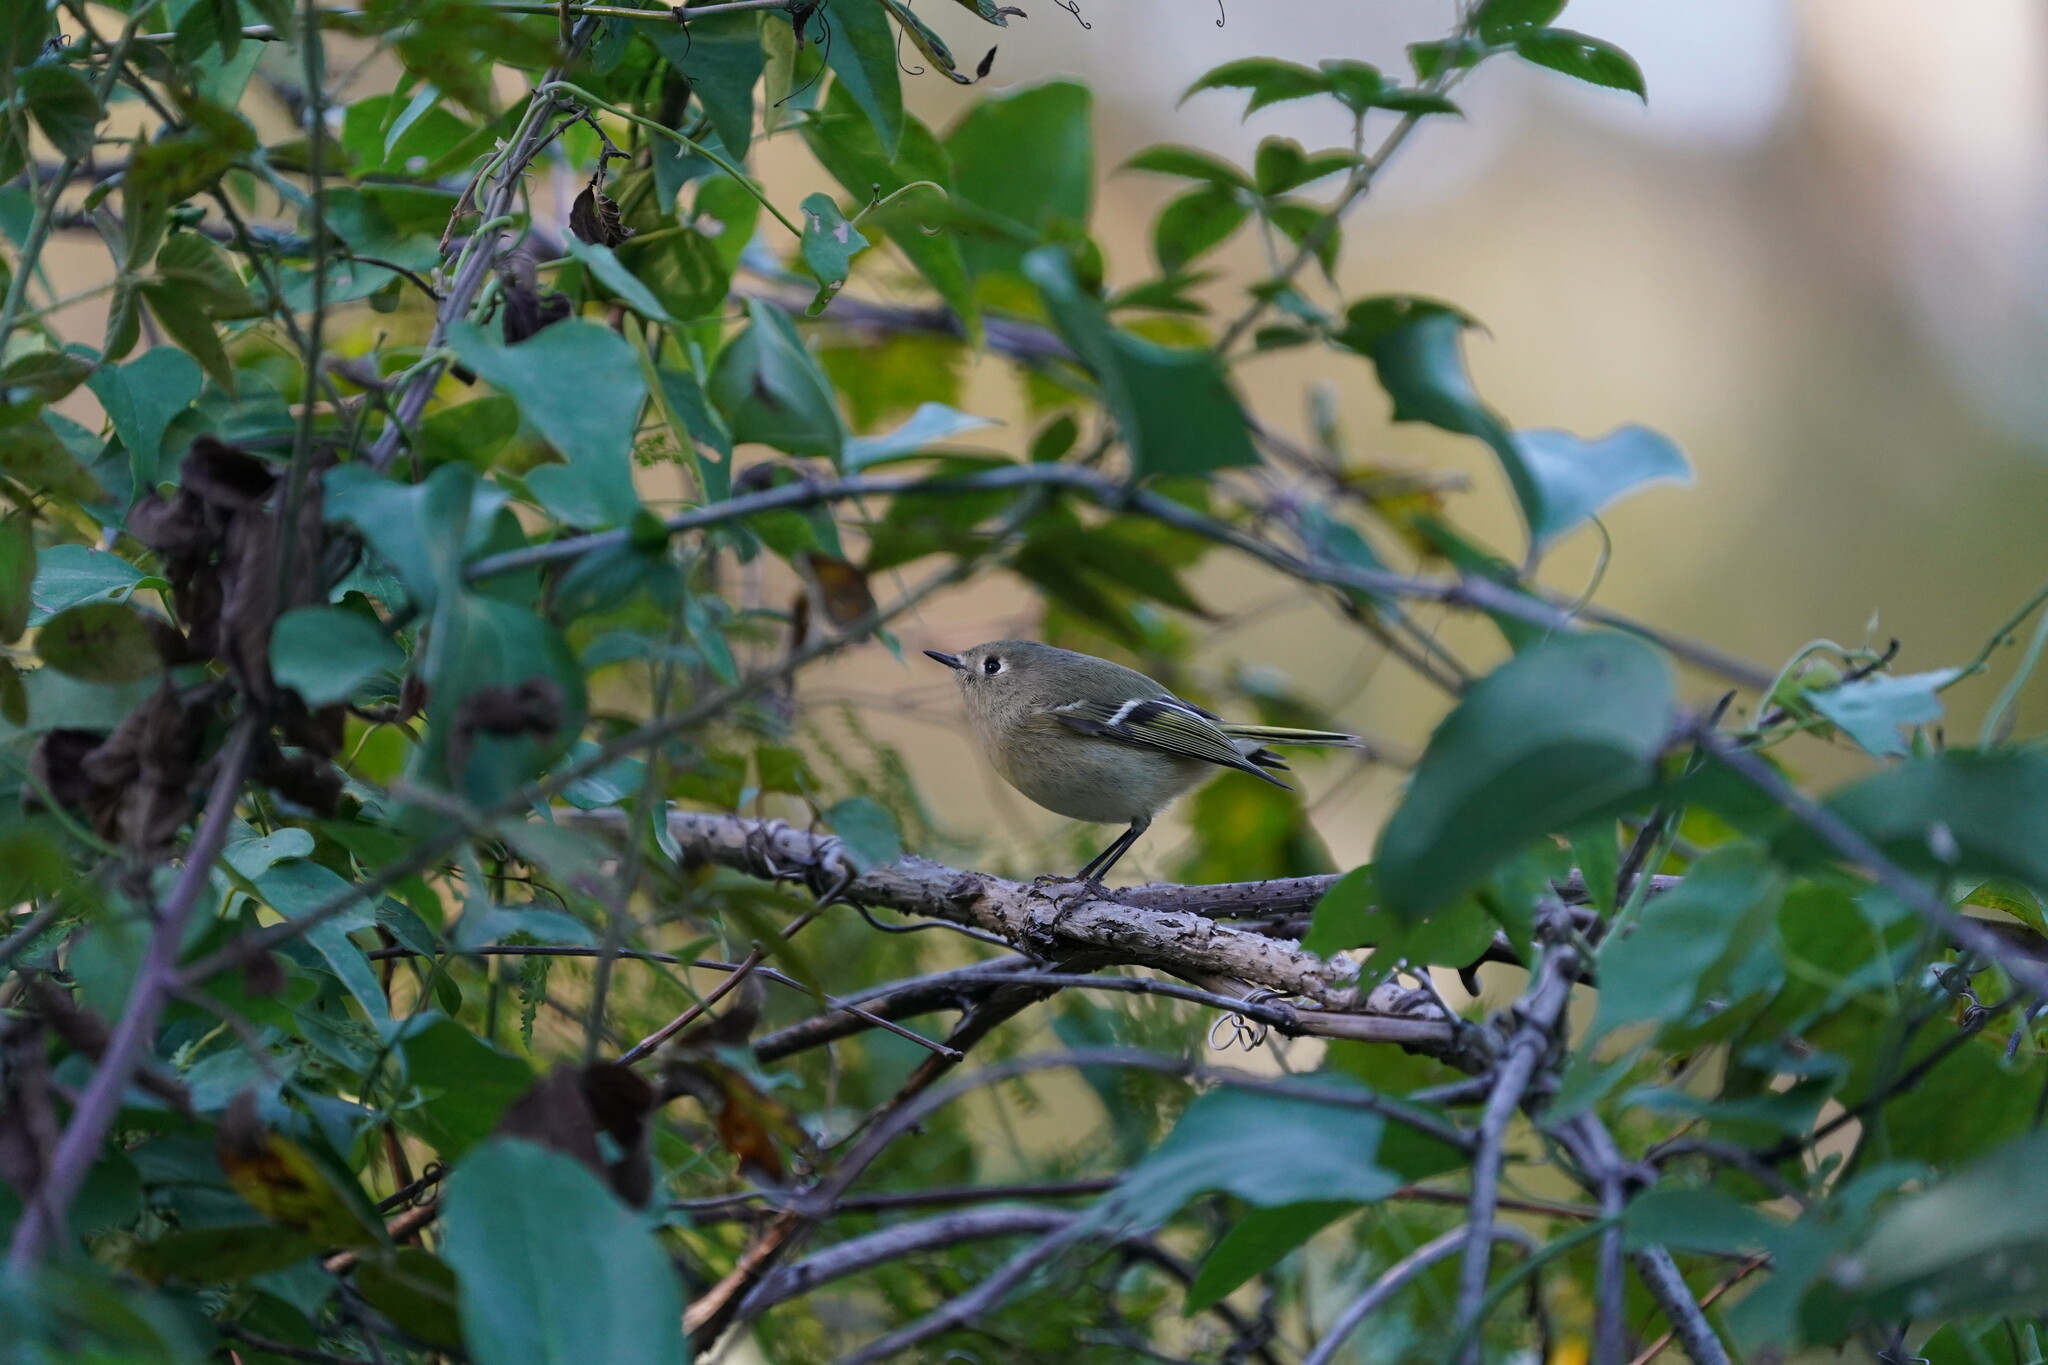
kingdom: Animalia
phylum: Chordata
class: Aves
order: Passeriformes
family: Regulidae
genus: Regulus
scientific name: Regulus calendula
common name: Ruby-crowned kinglet
